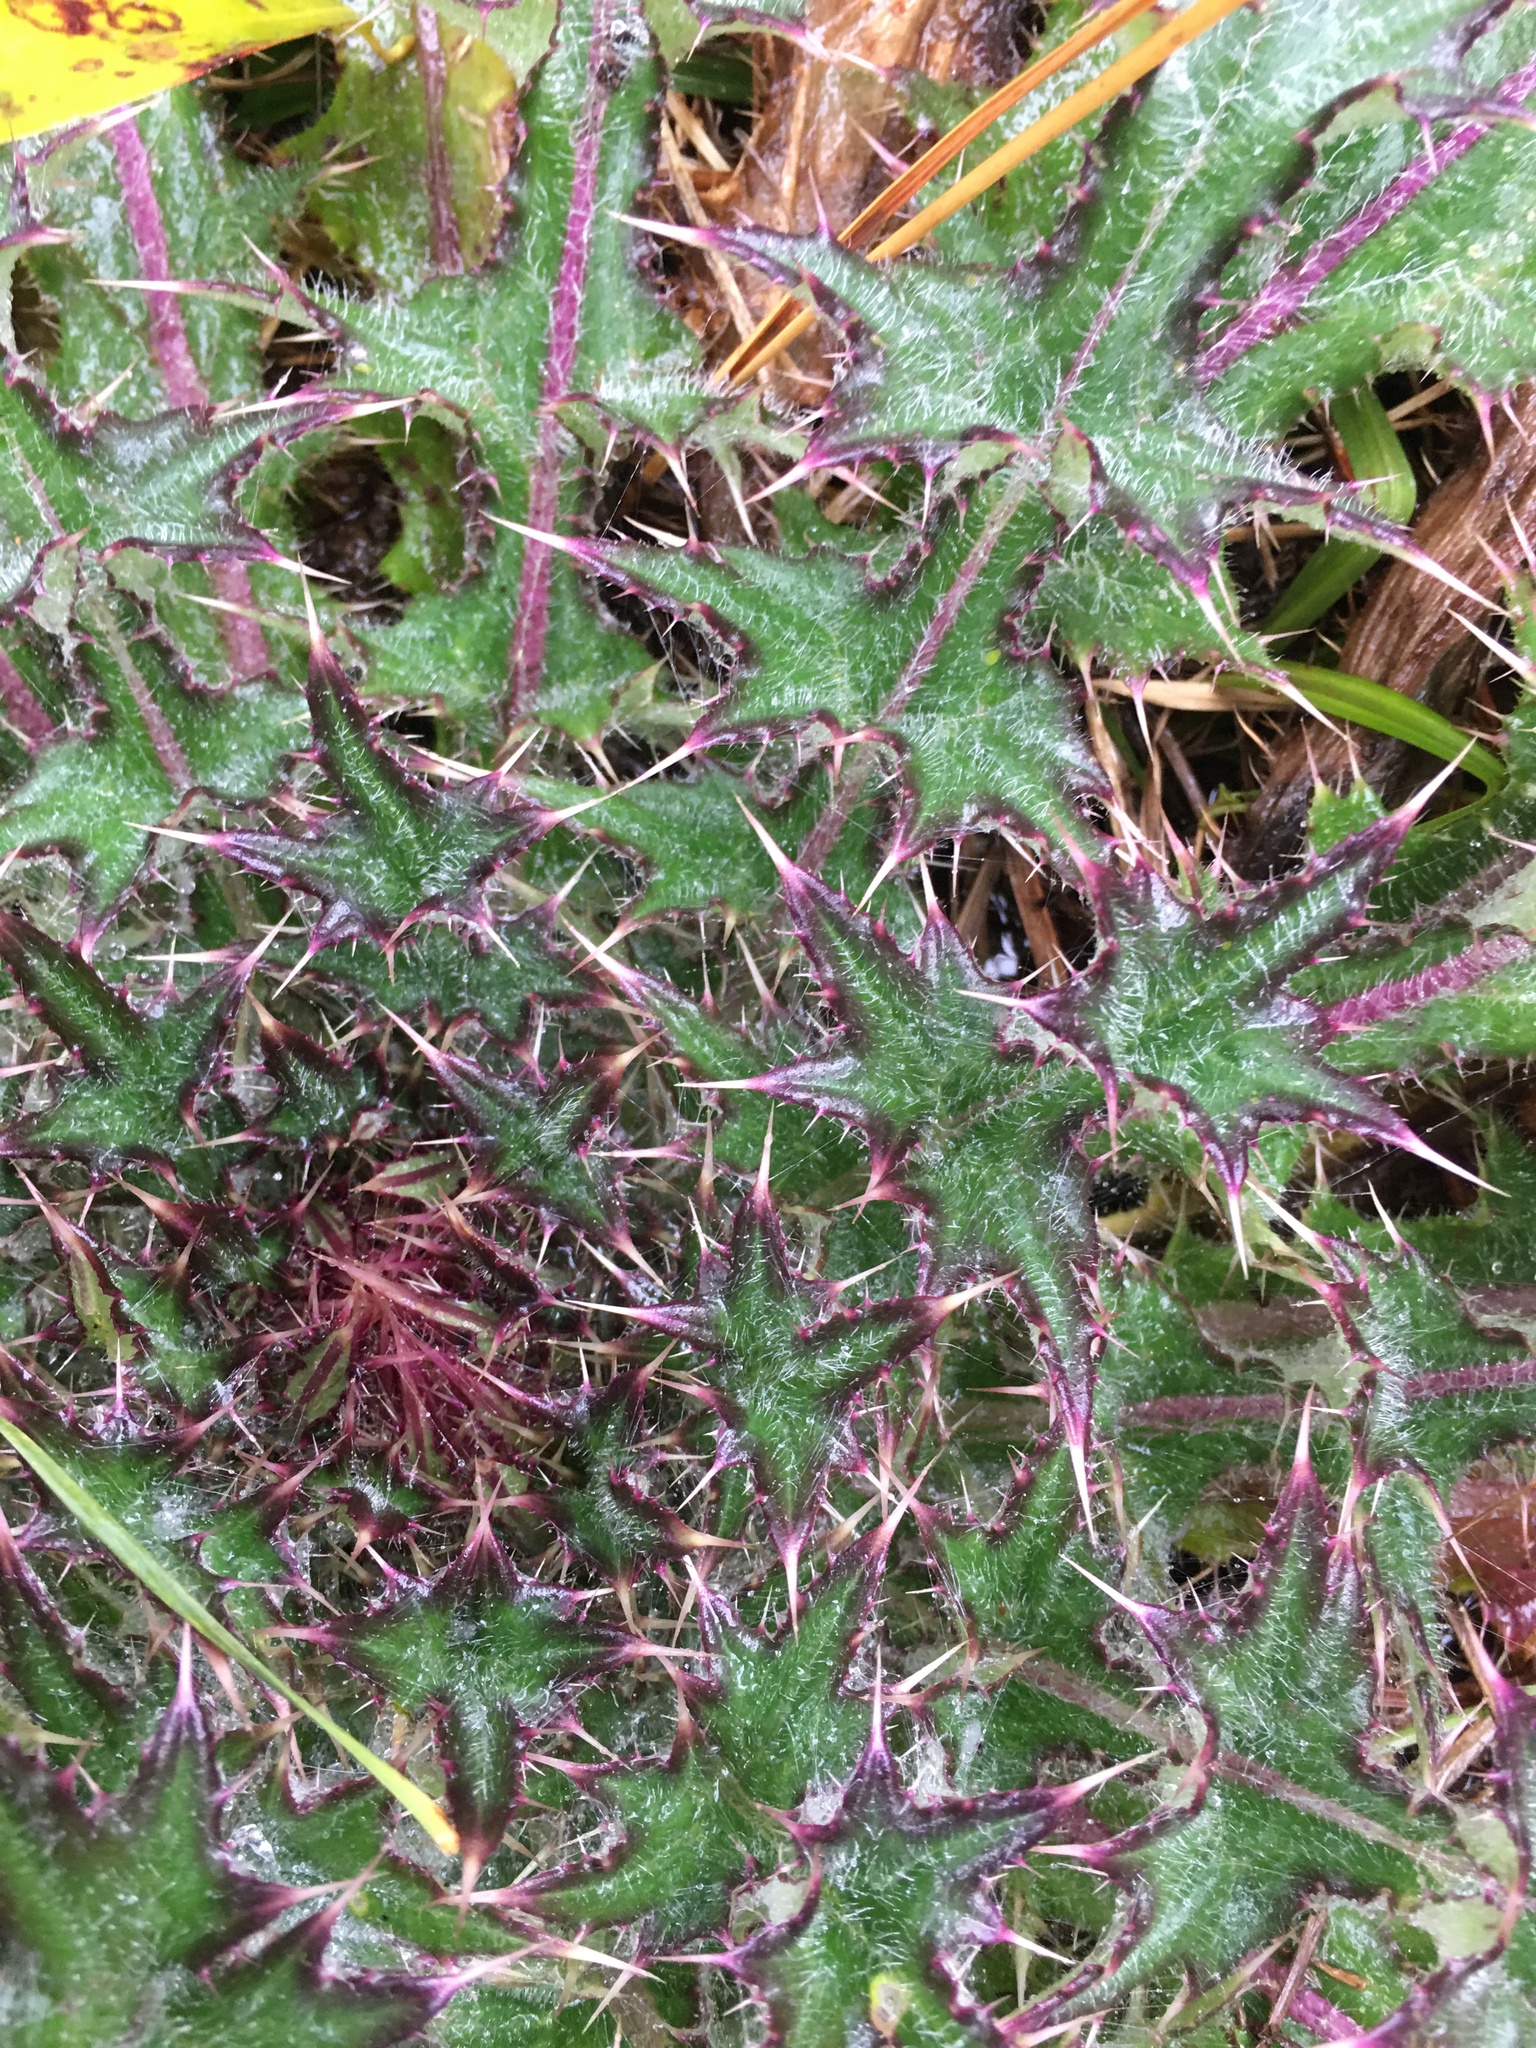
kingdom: Plantae
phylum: Tracheophyta
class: Magnoliopsida
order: Asterales
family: Asteraceae
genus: Cirsium
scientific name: Cirsium horridulum
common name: Bristly thistle
